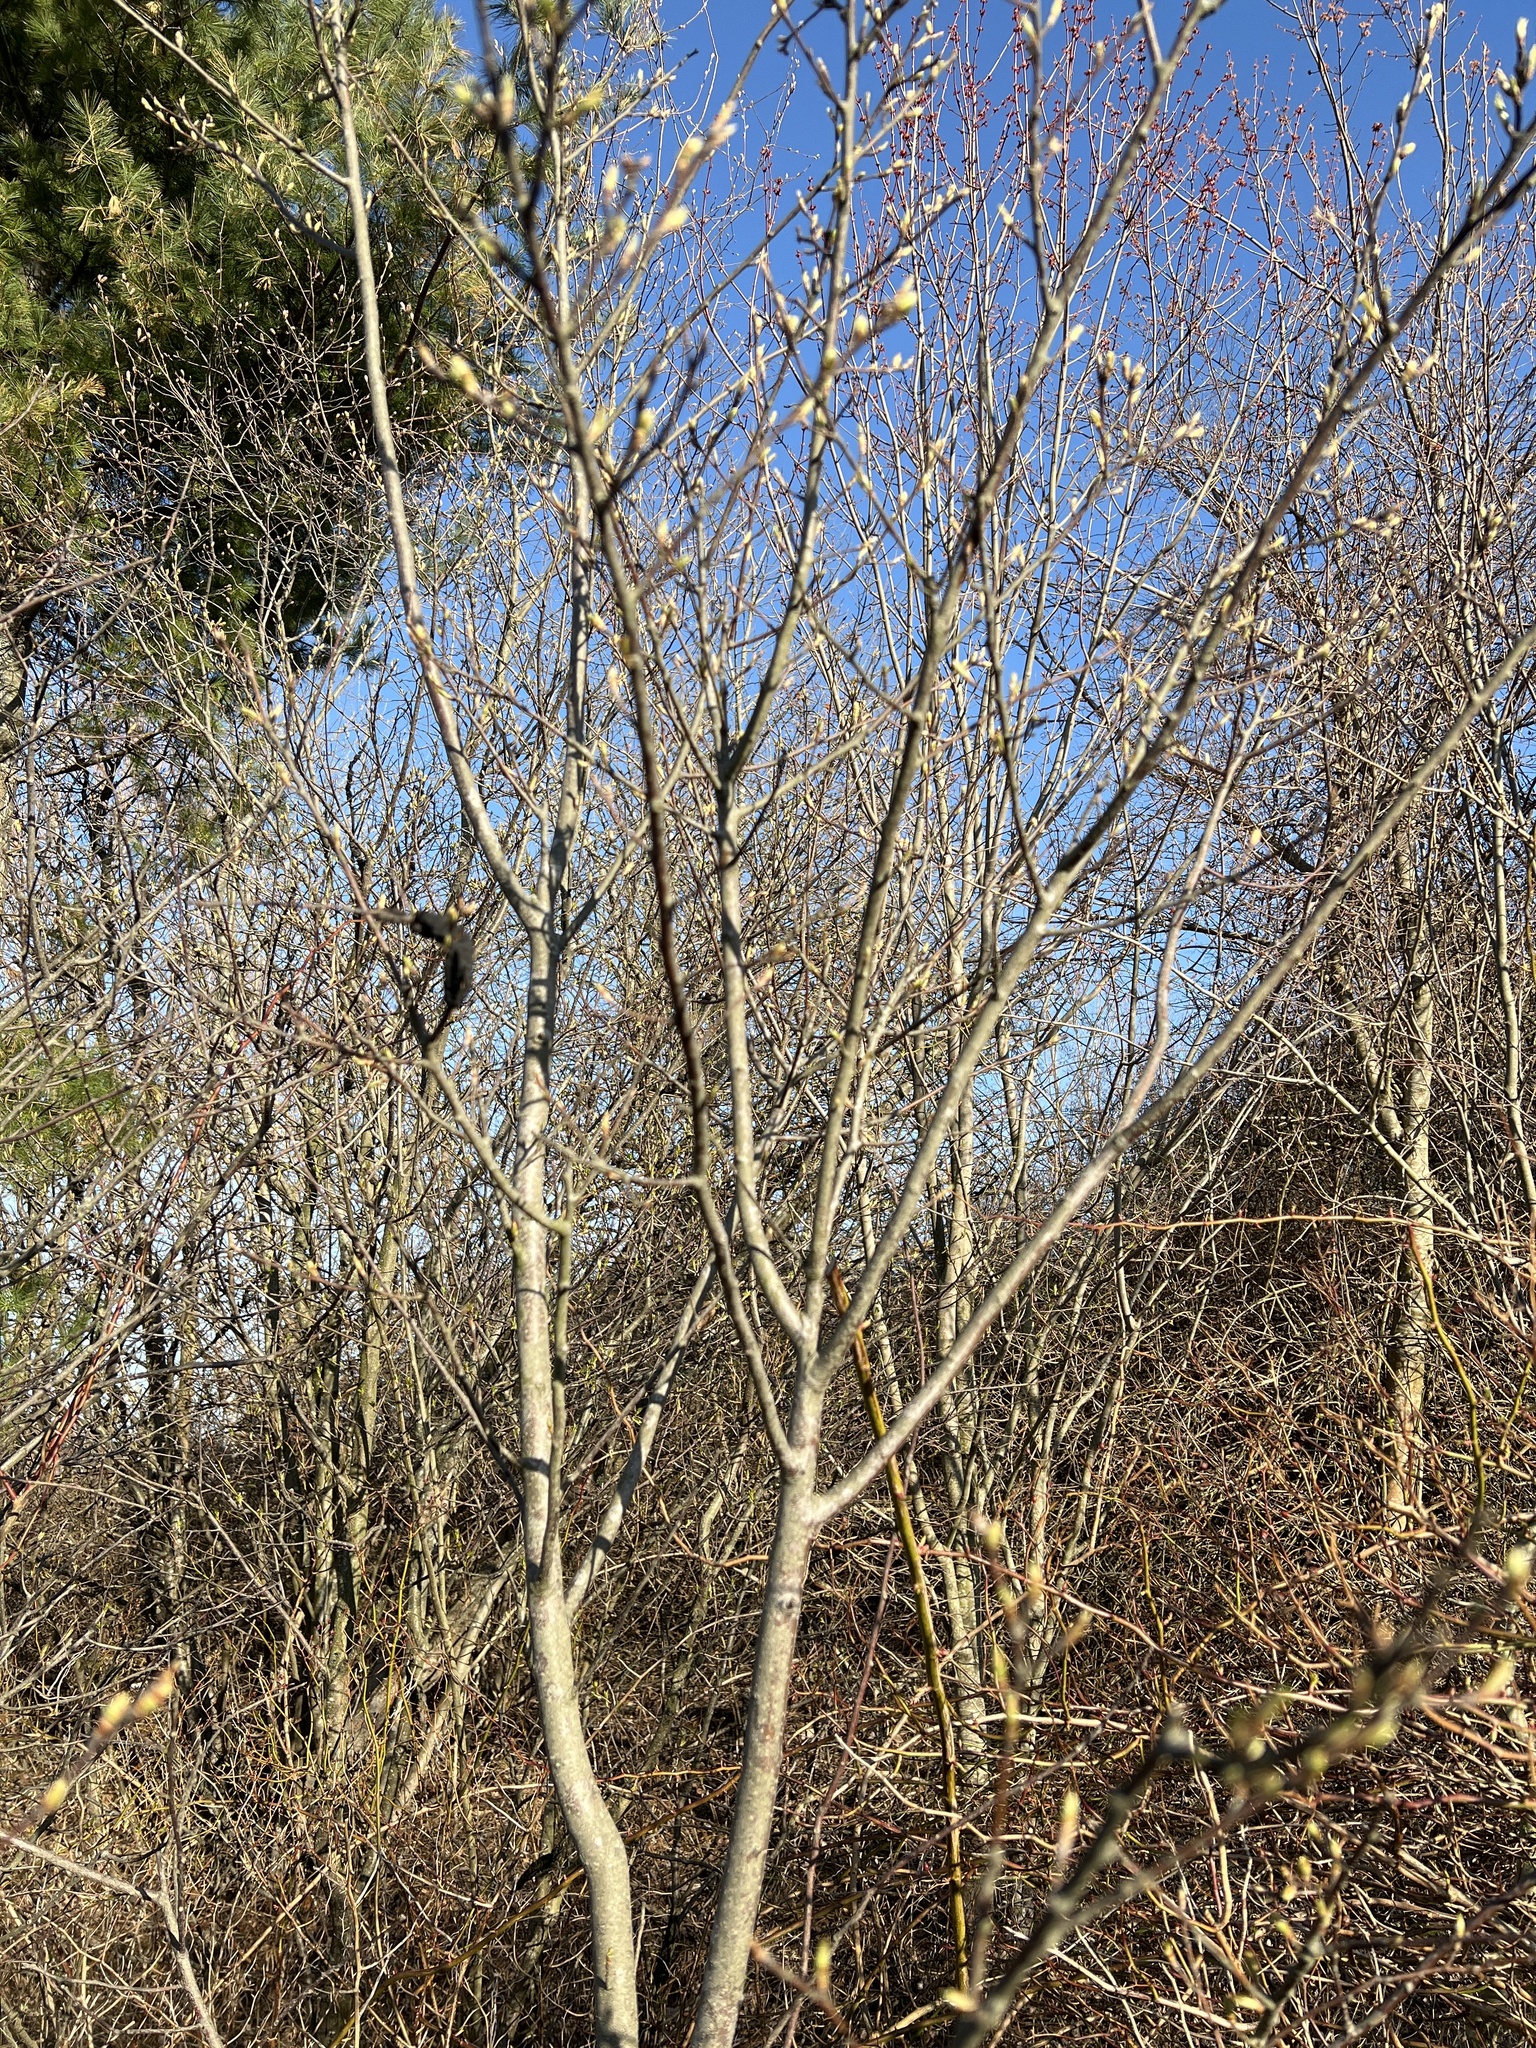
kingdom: Fungi
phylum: Ascomycota
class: Dothideomycetes
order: Venturiales
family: Venturiaceae
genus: Apiosporina
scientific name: Apiosporina morbosa
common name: Black knot
